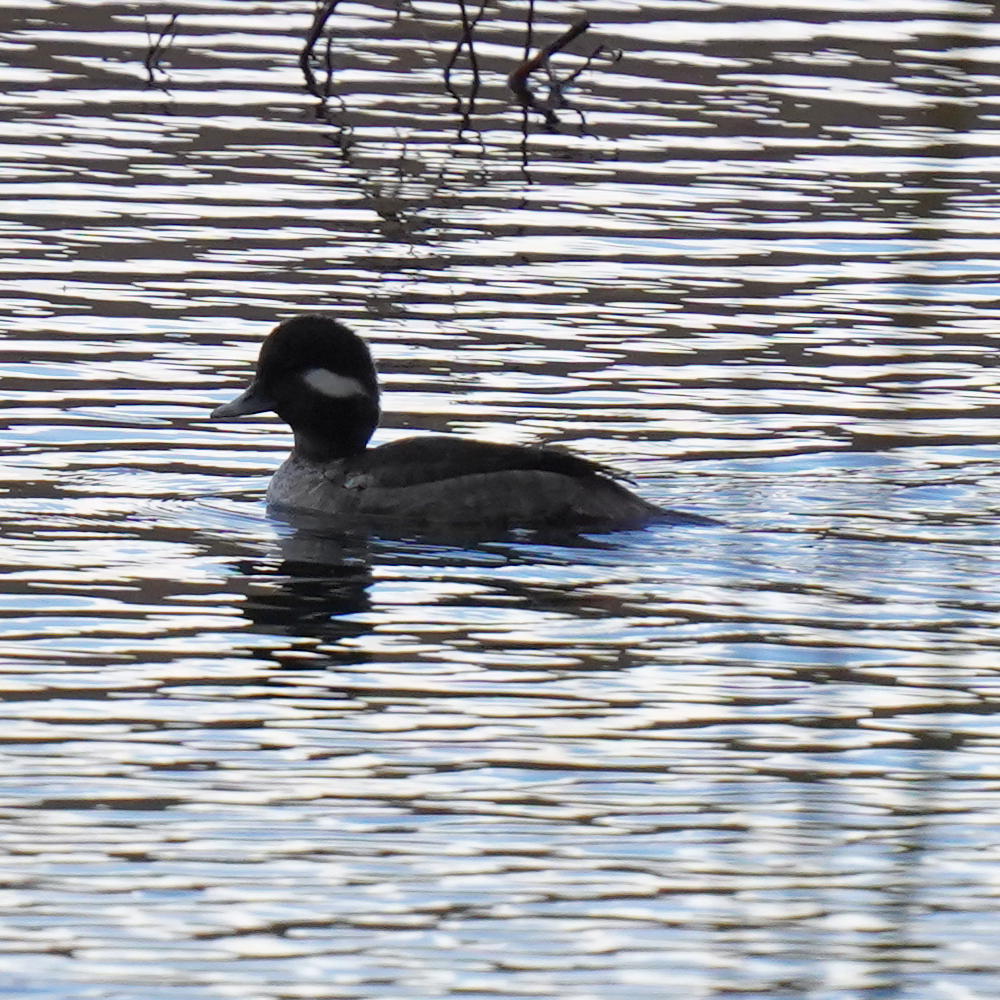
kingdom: Animalia
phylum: Chordata
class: Aves
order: Anseriformes
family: Anatidae
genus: Bucephala
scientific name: Bucephala albeola
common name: Bufflehead
